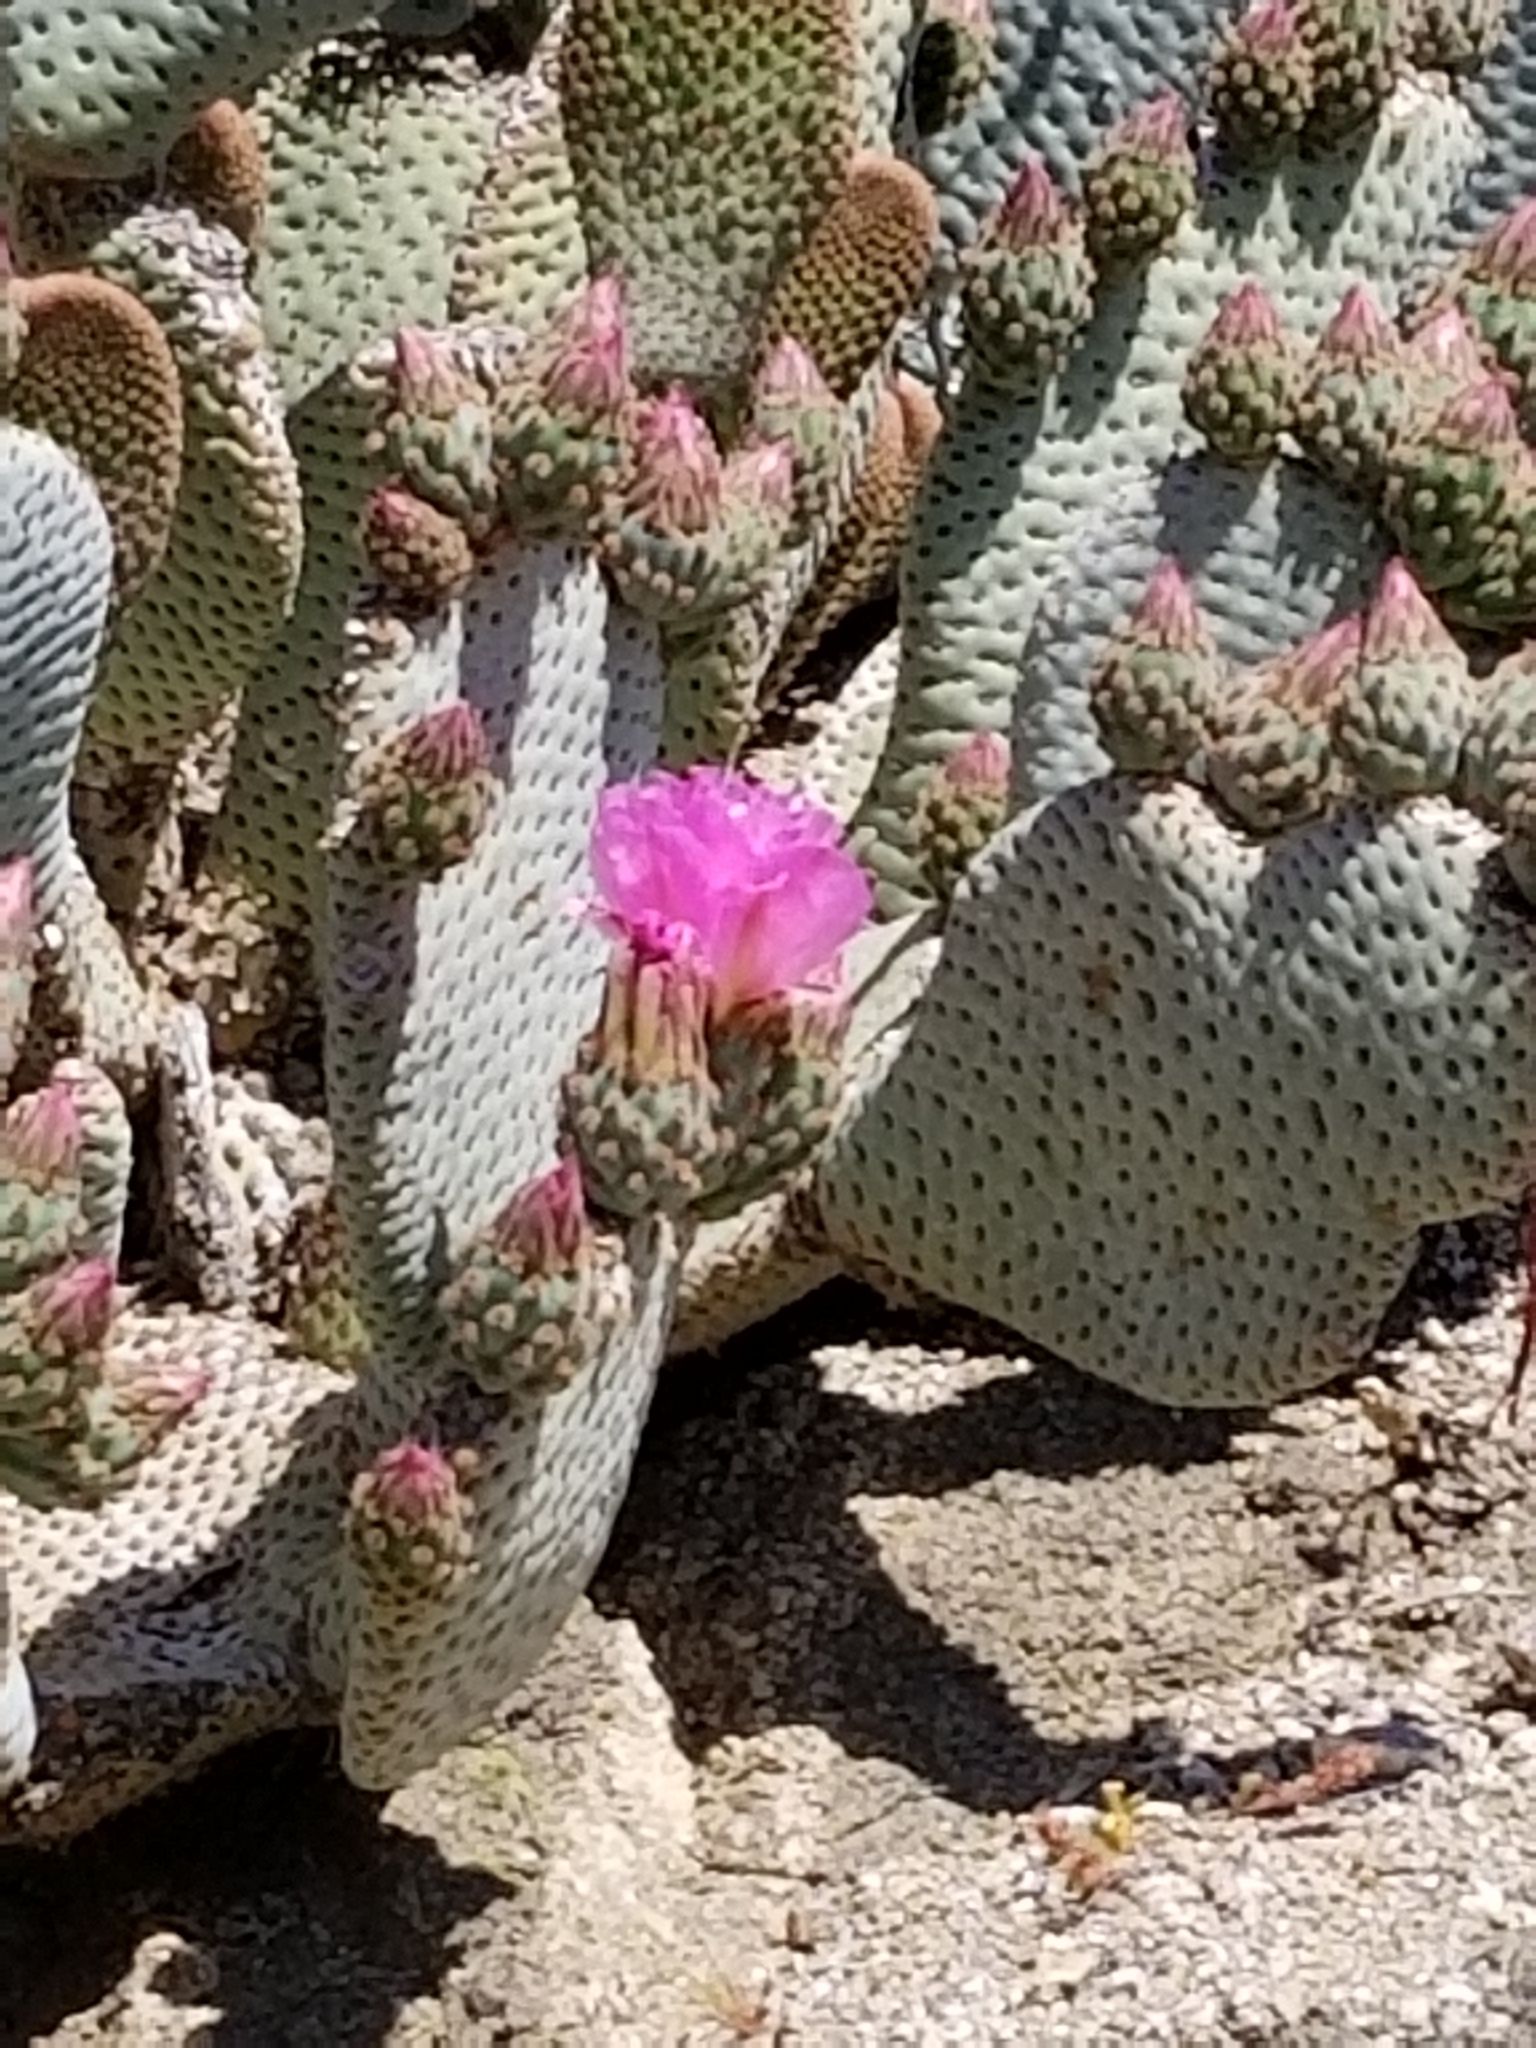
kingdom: Plantae
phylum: Tracheophyta
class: Magnoliopsida
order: Caryophyllales
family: Cactaceae
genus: Opuntia
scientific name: Opuntia basilaris
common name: Beavertail prickly-pear
